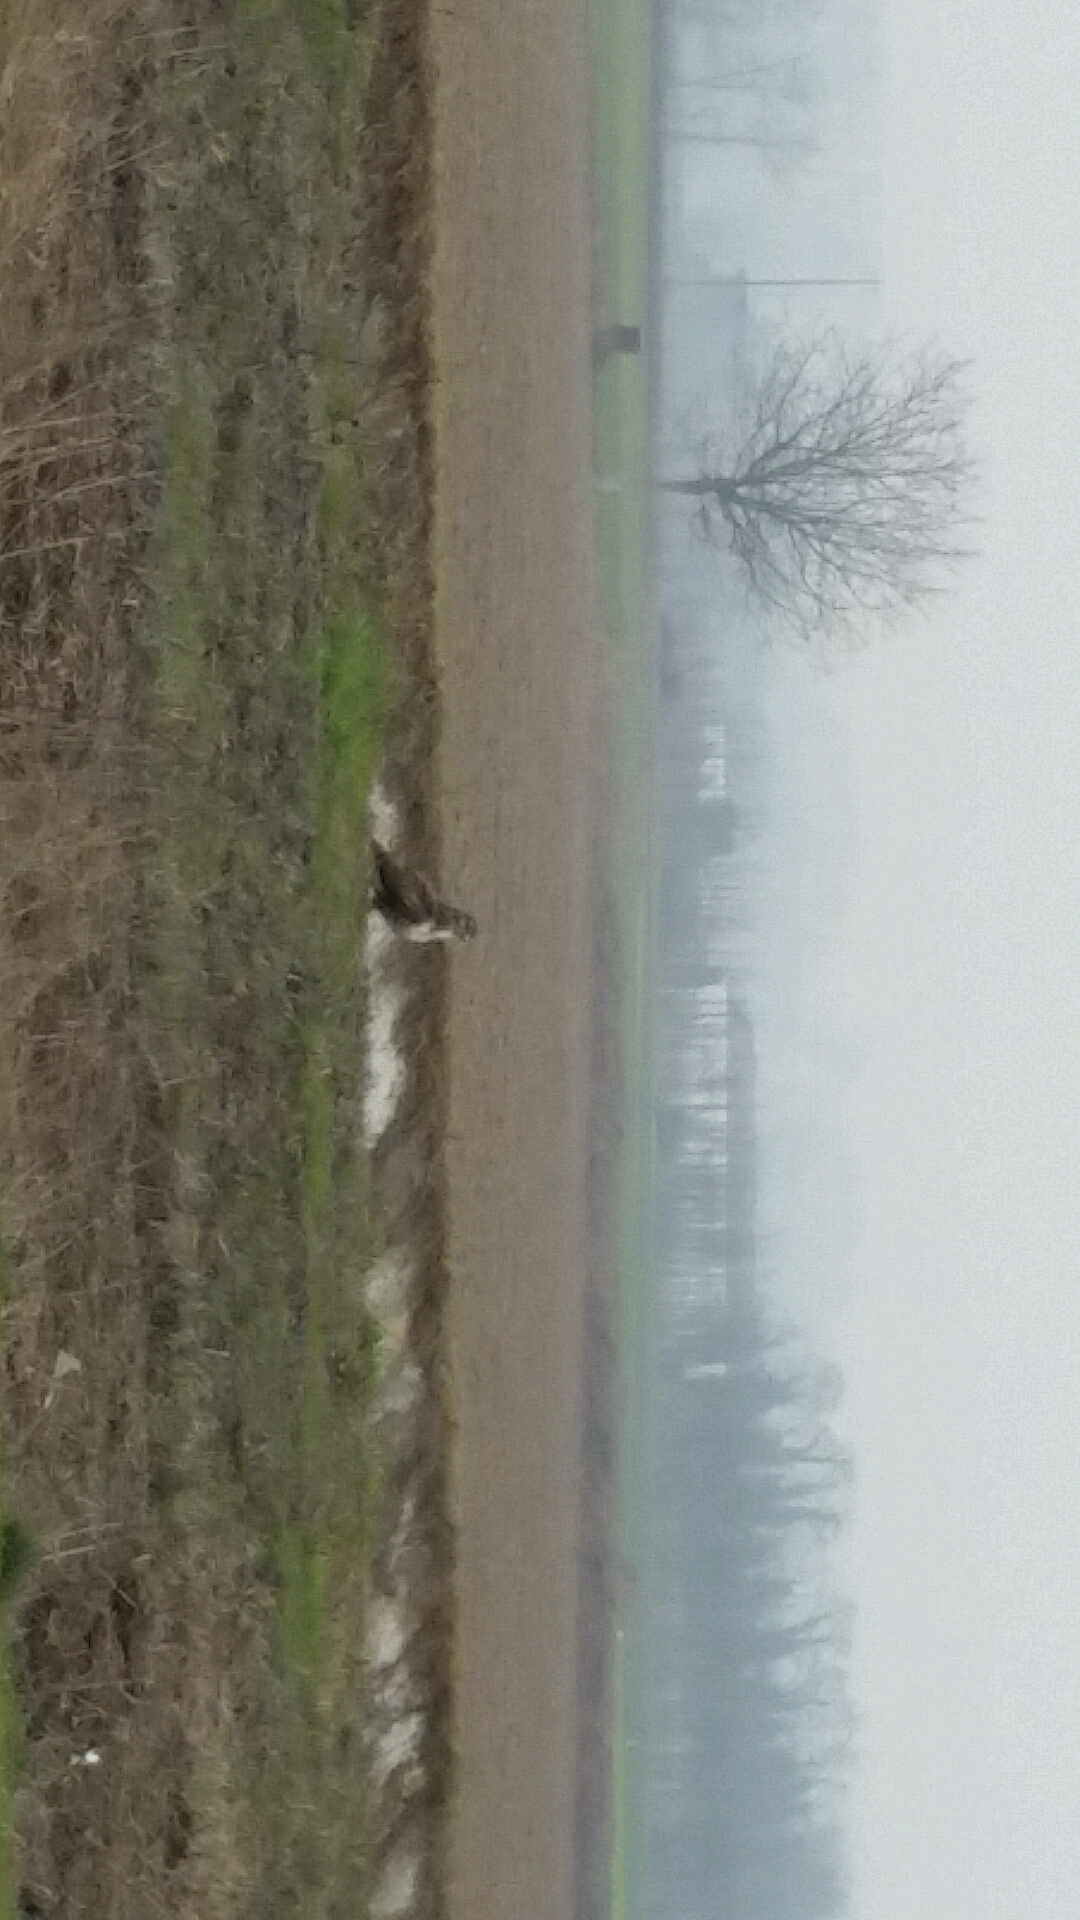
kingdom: Animalia
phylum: Chordata
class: Aves
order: Accipitriformes
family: Accipitridae
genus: Buteo
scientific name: Buteo buteo
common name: Common buzzard
